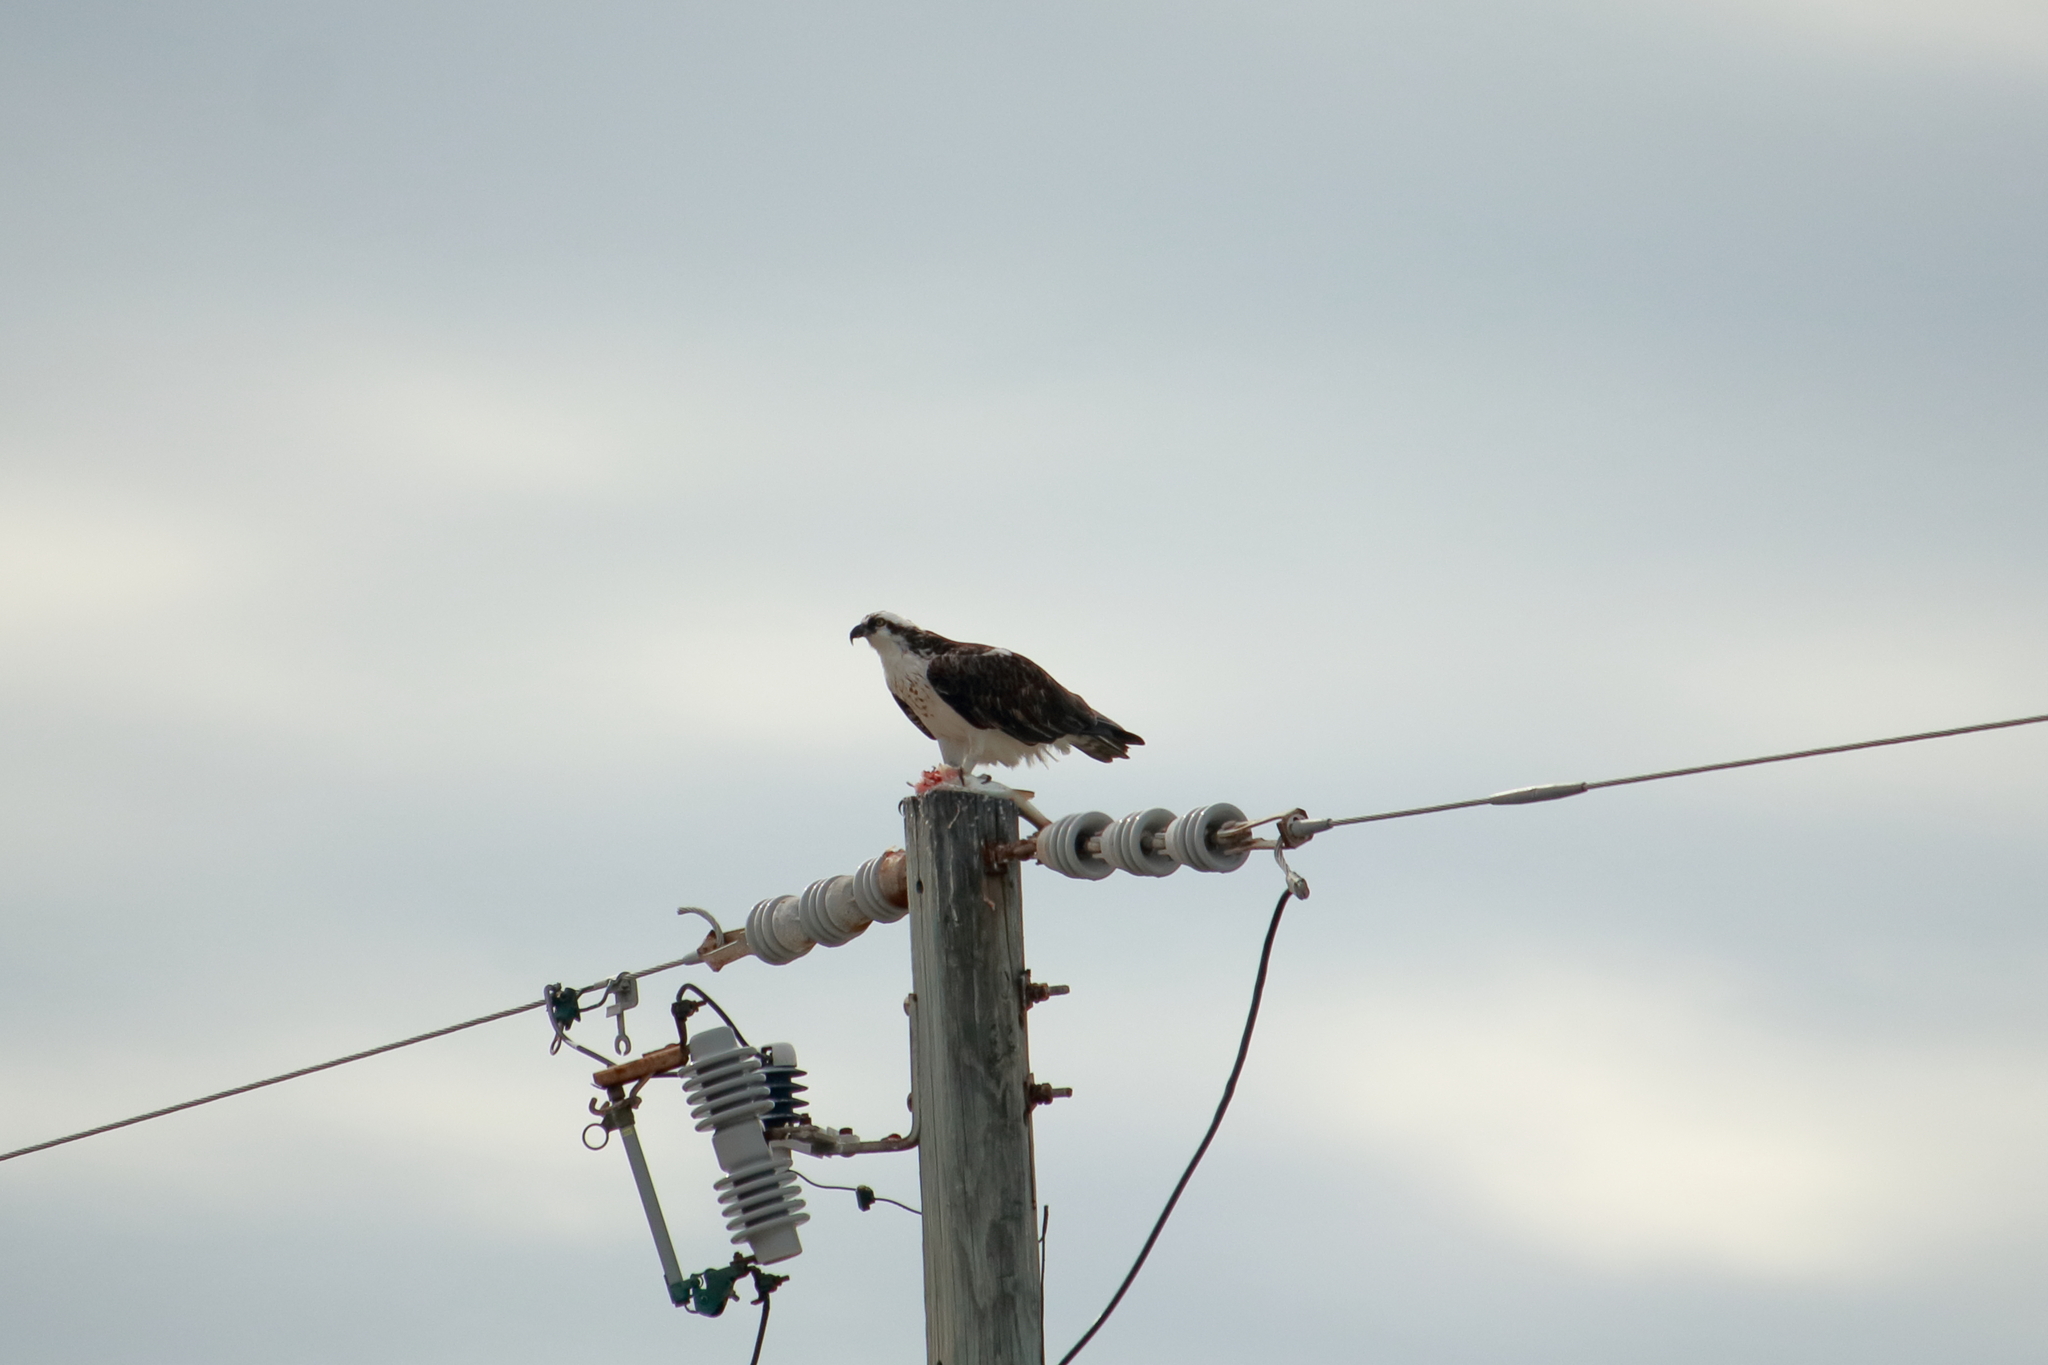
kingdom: Animalia
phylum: Chordata
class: Aves
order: Accipitriformes
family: Pandionidae
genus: Pandion
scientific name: Pandion haliaetus
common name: Osprey
